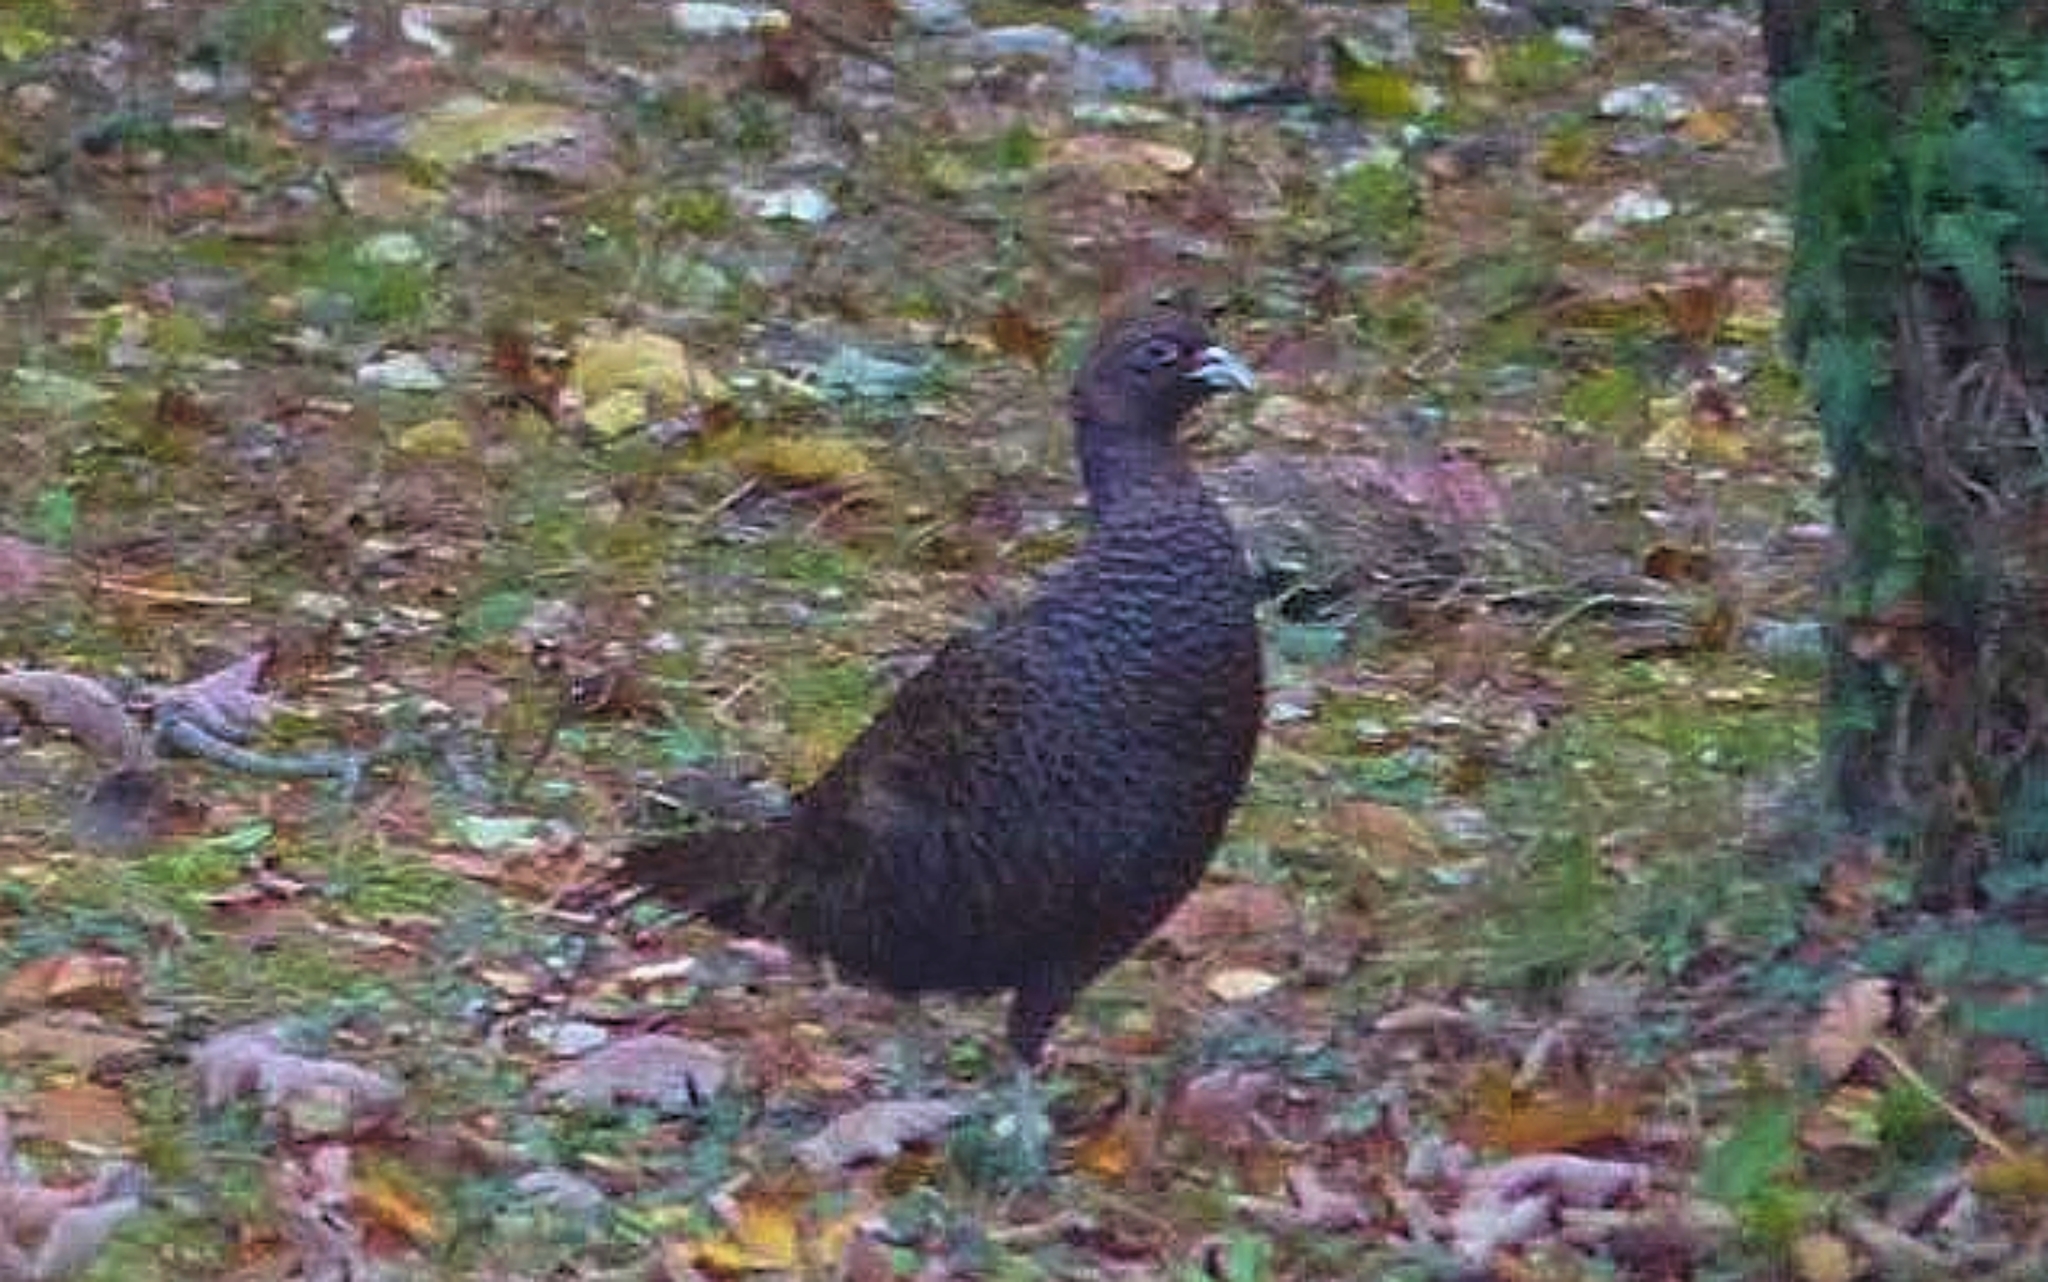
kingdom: Animalia
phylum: Chordata
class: Aves
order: Galliformes
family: Phasianidae
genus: Phasianus
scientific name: Phasianus colchicus
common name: Common pheasant
